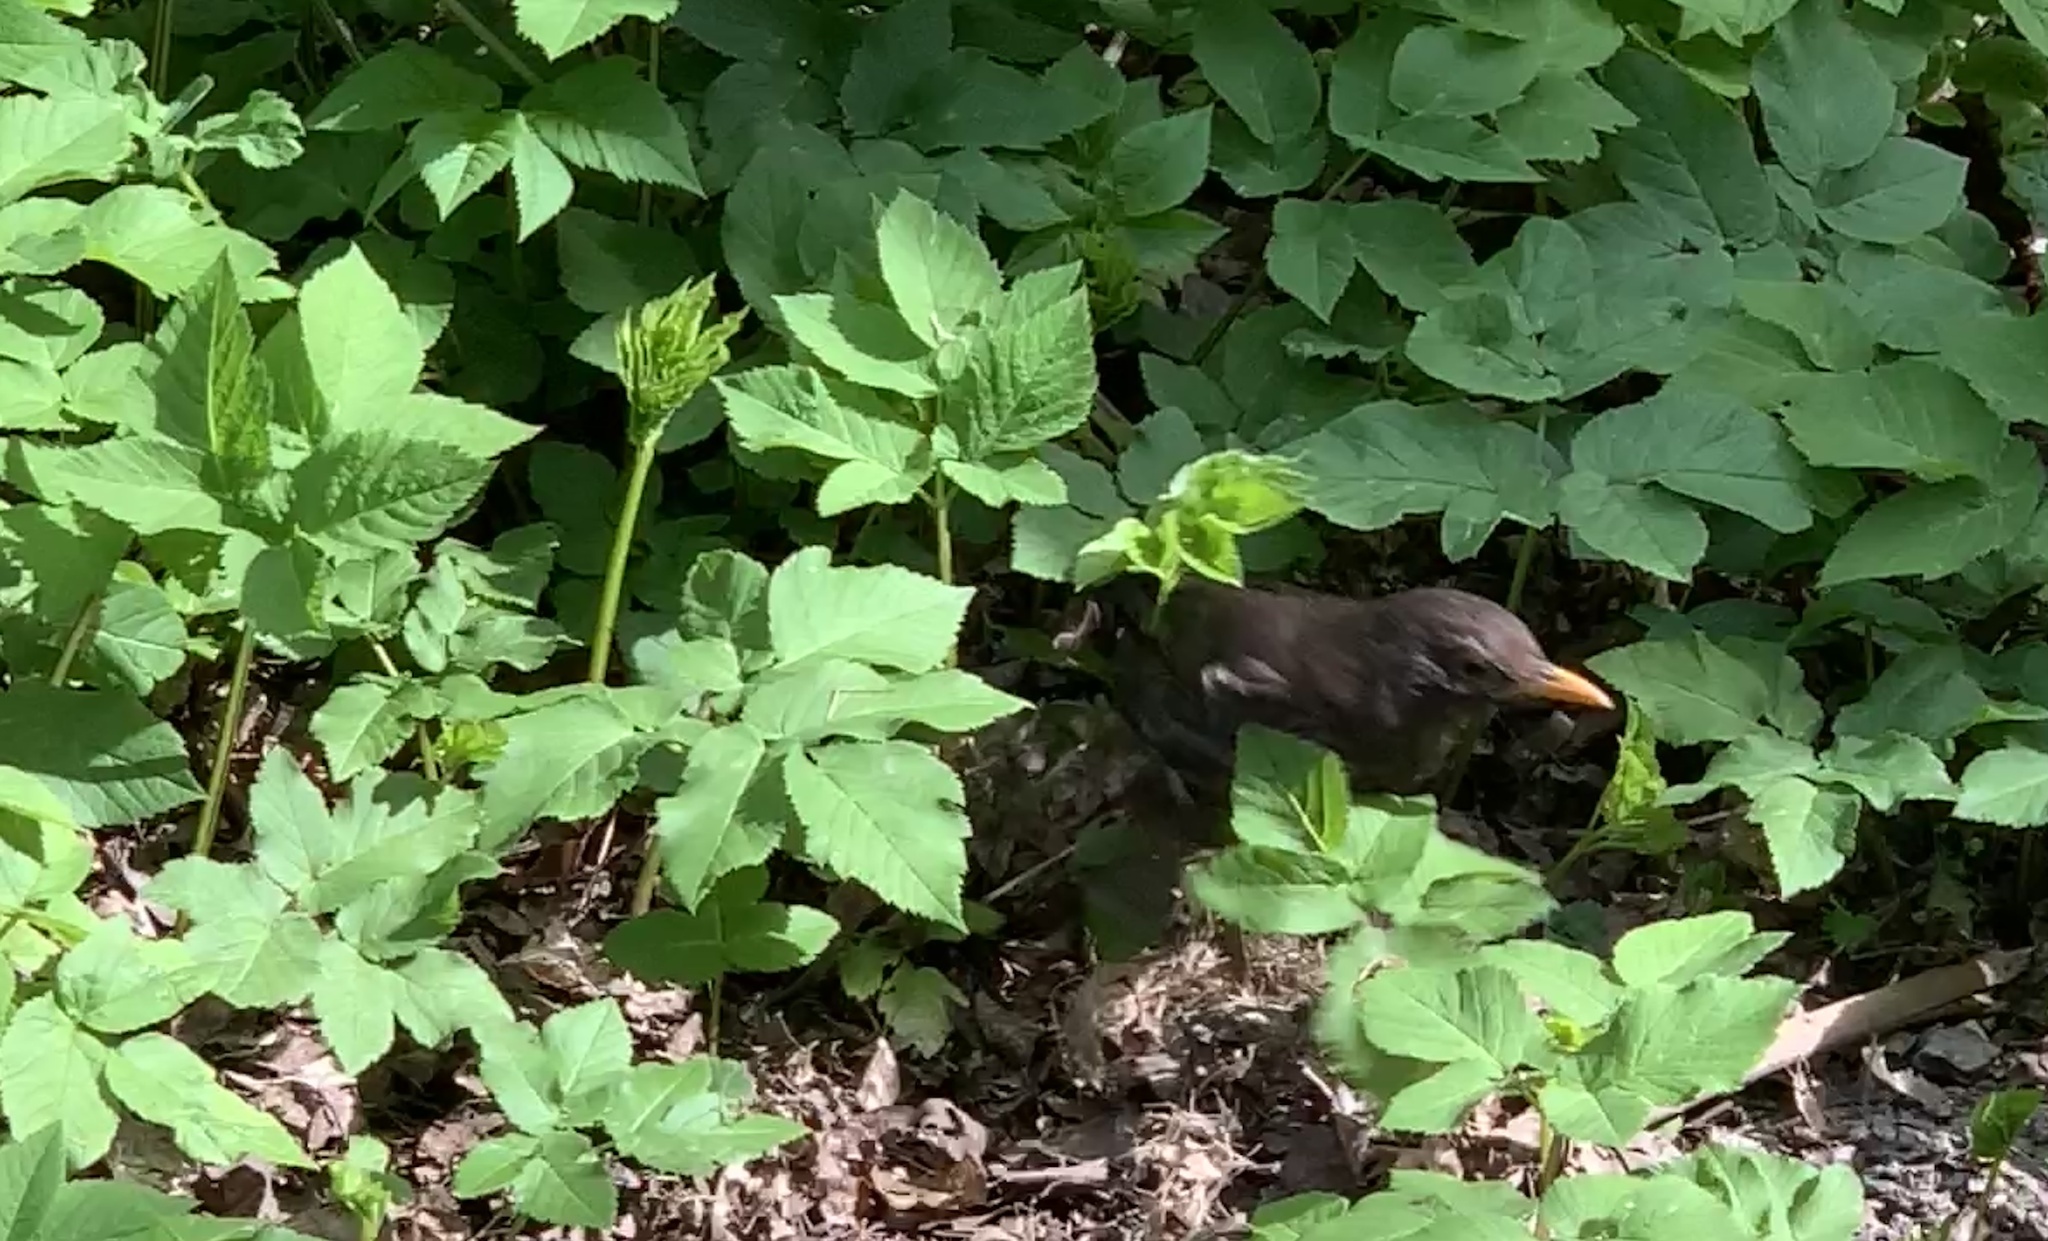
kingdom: Animalia
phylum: Chordata
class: Aves
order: Passeriformes
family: Turdidae
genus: Turdus
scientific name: Turdus merula
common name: Common blackbird
